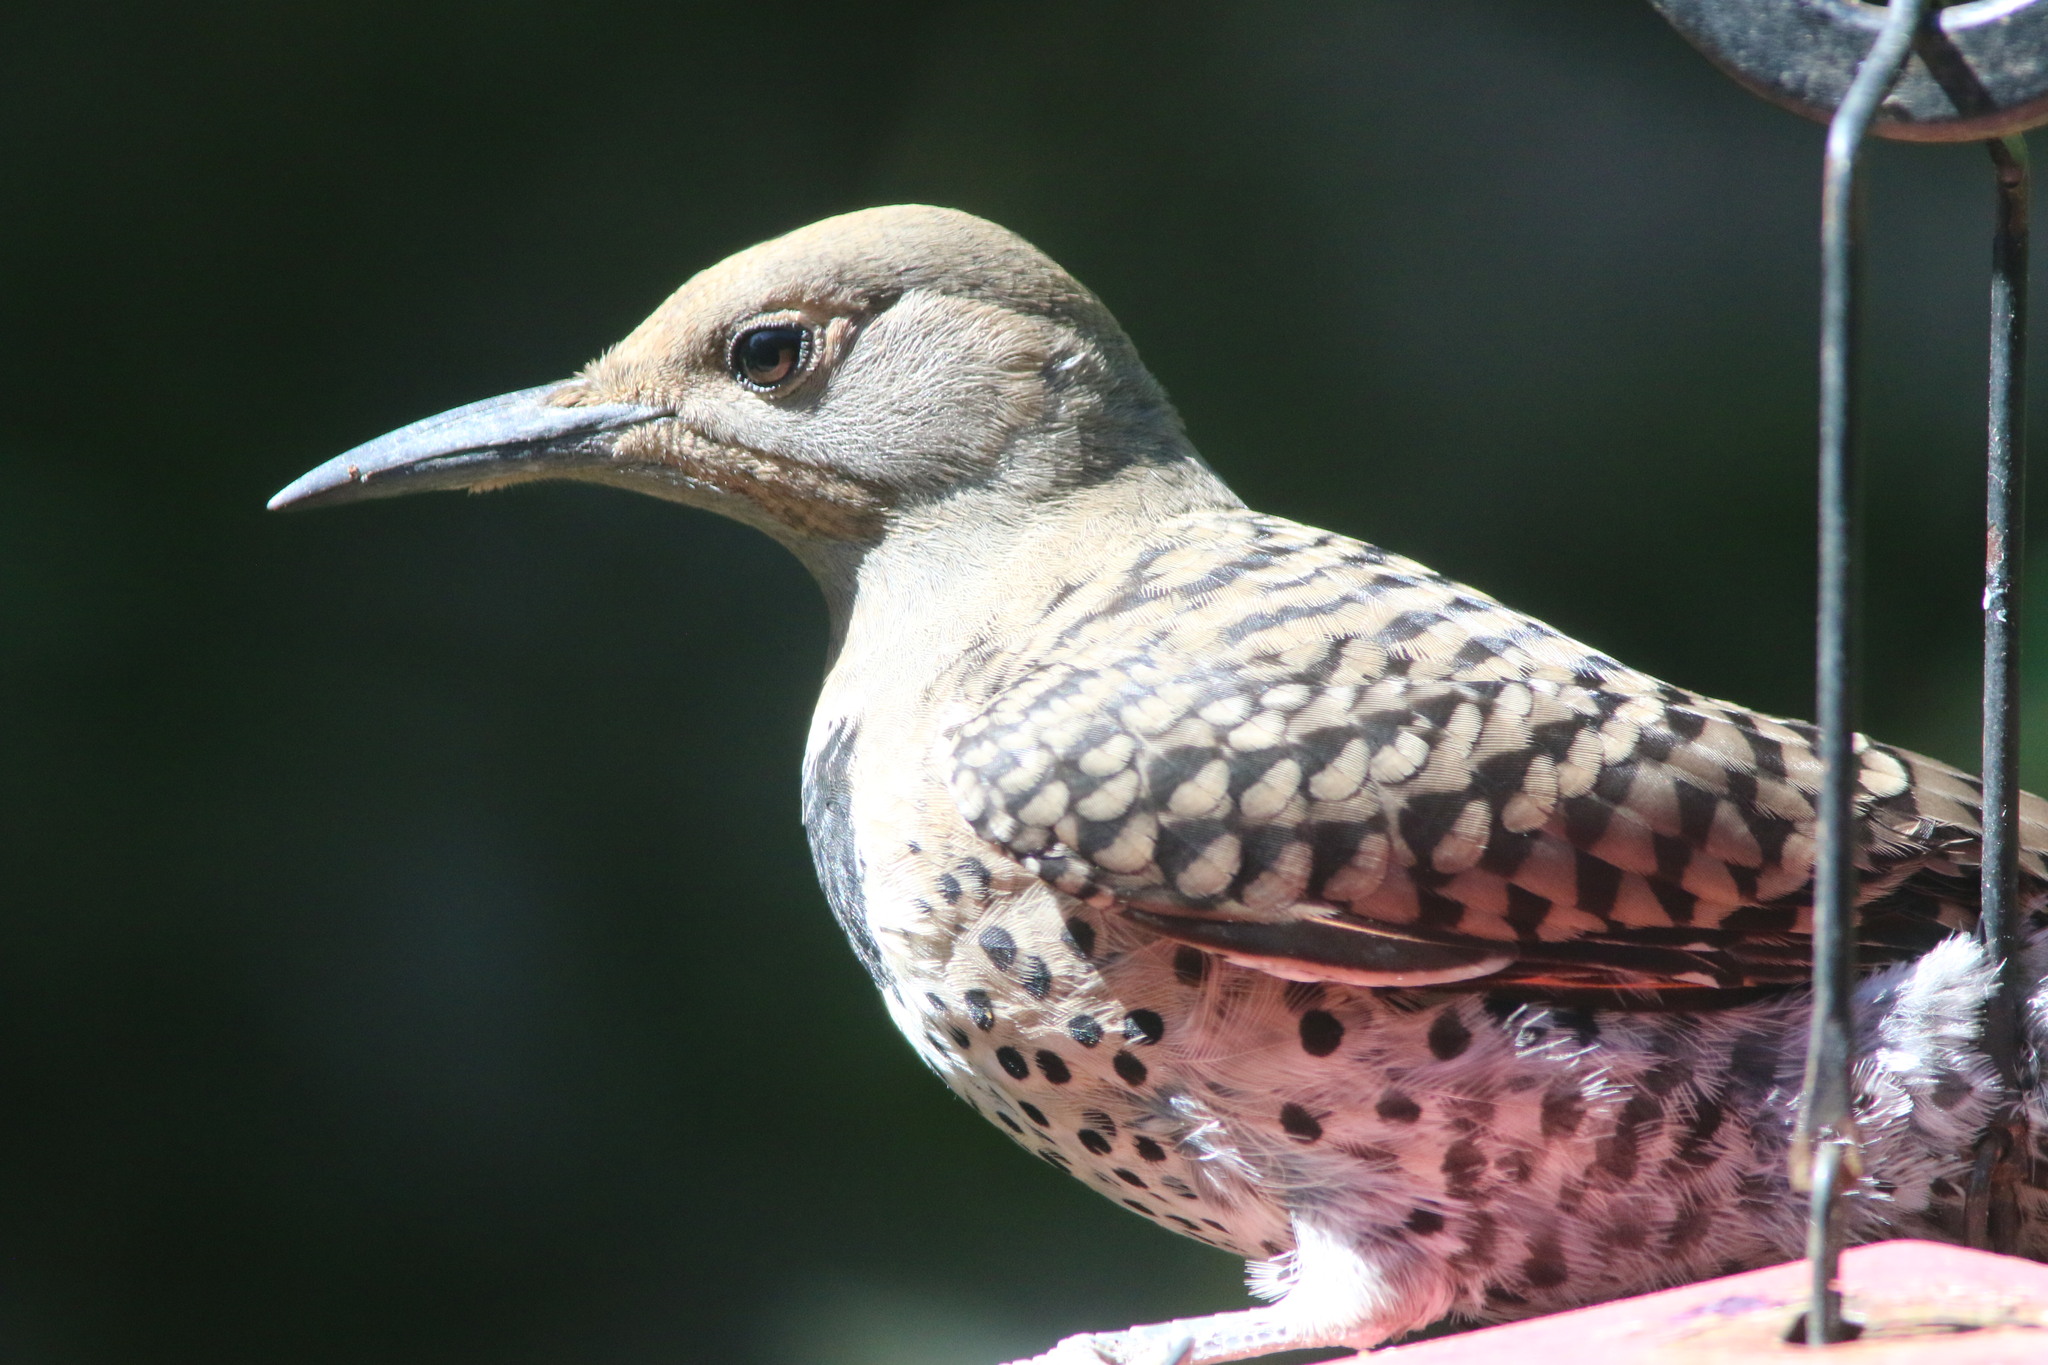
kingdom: Animalia
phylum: Chordata
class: Aves
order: Piciformes
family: Picidae
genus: Colaptes
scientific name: Colaptes auratus
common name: Northern flicker
